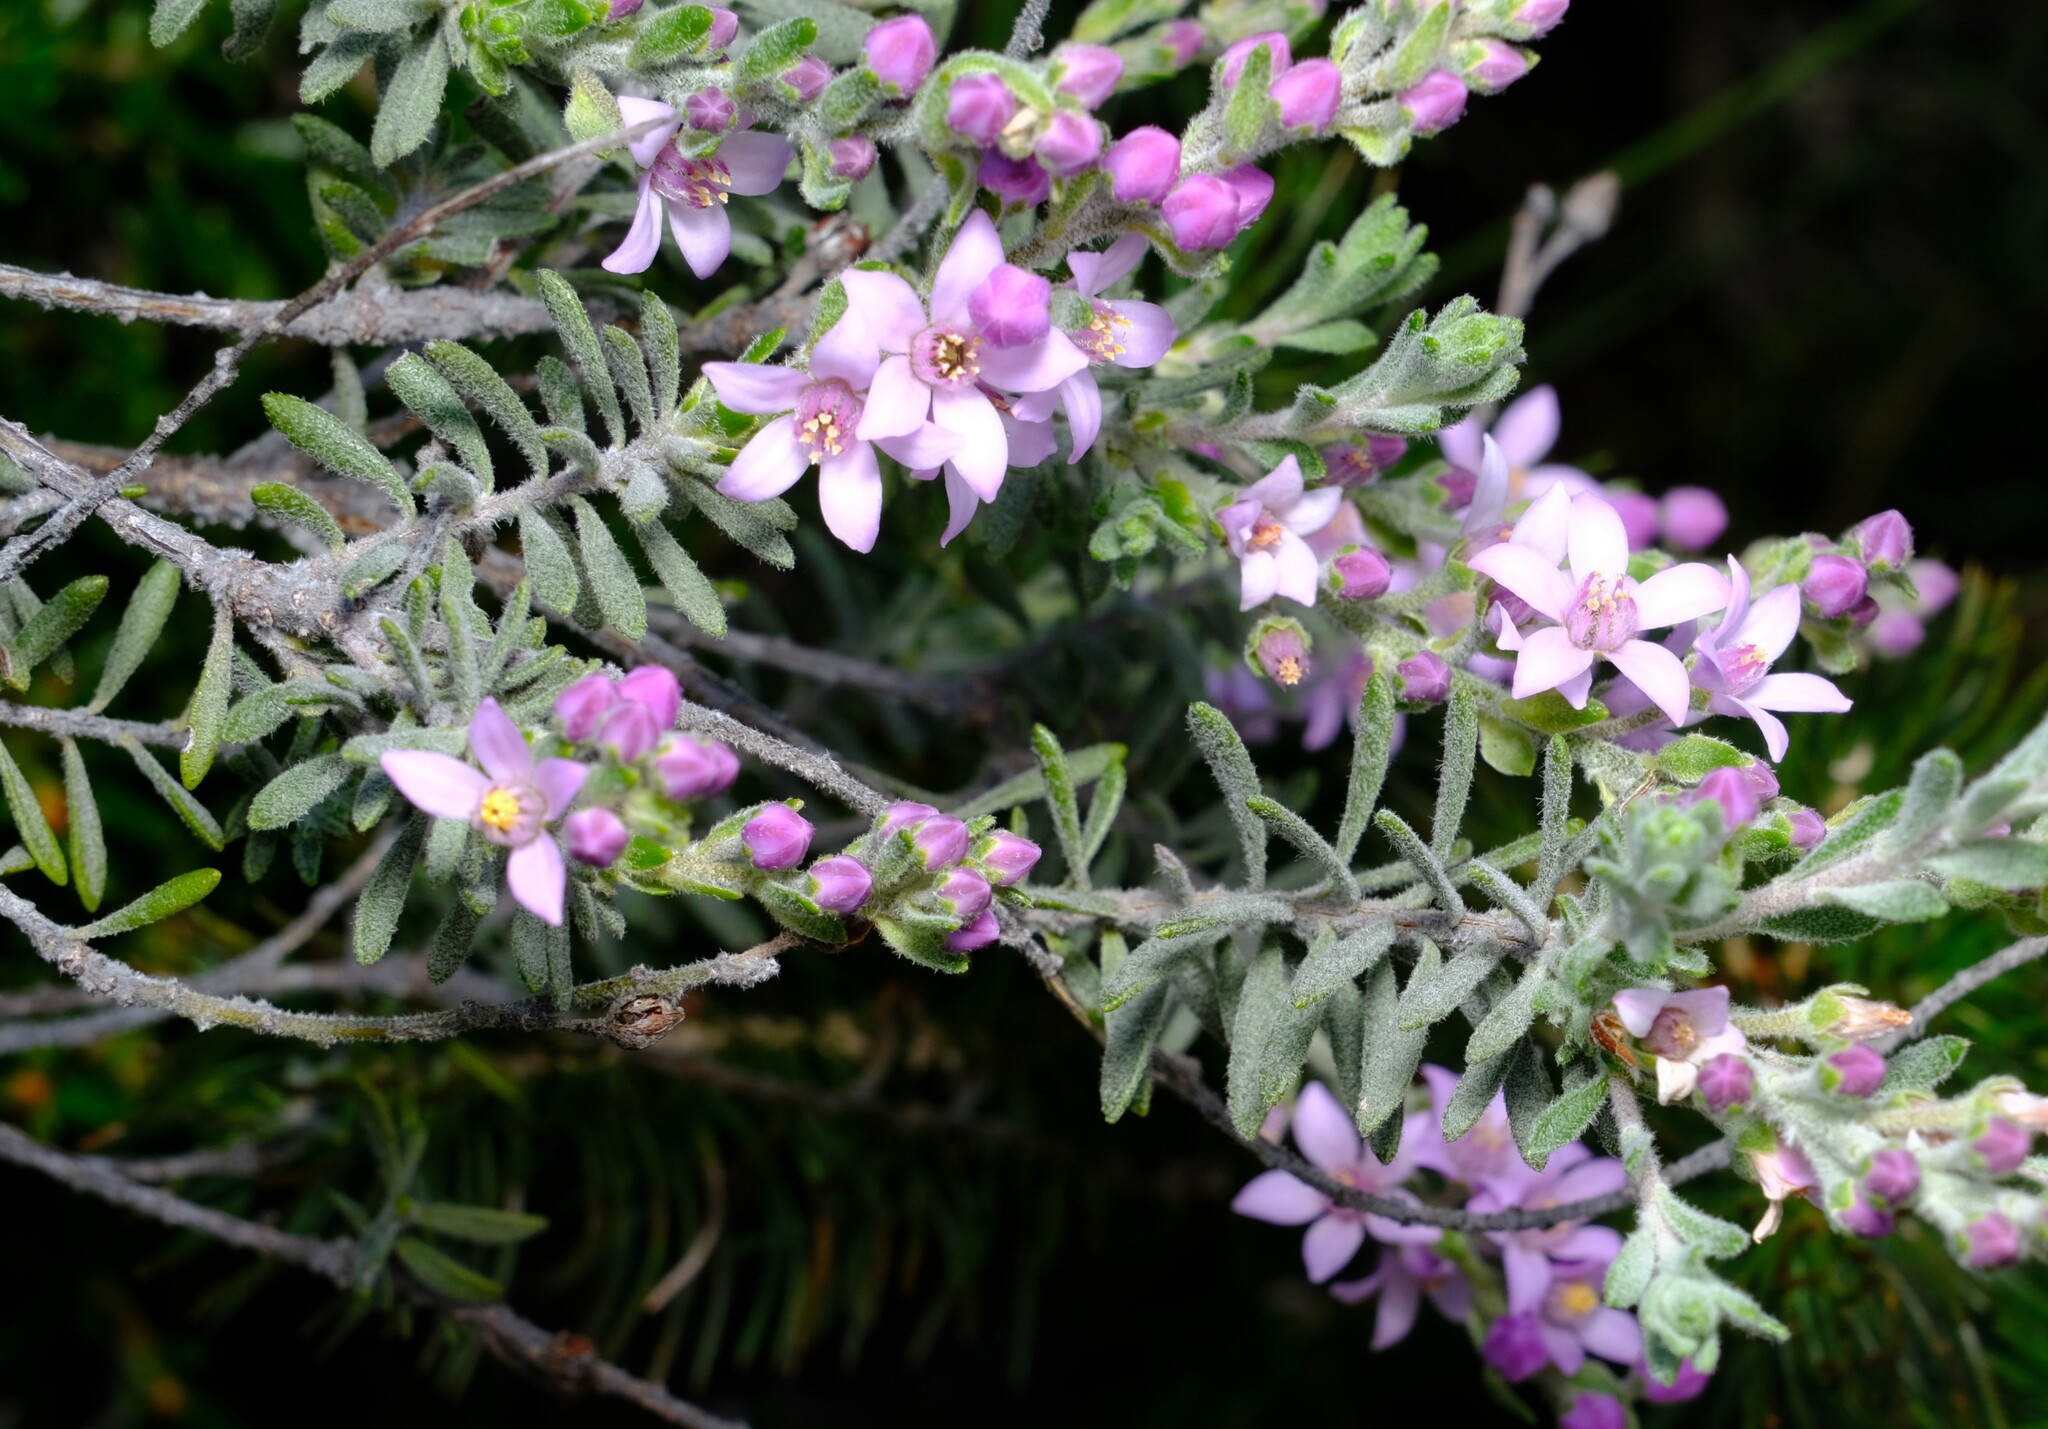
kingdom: Plantae
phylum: Tracheophyta
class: Magnoliopsida
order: Sapindales
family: Rutaceae
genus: Philotheca
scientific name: Philotheca spicata
